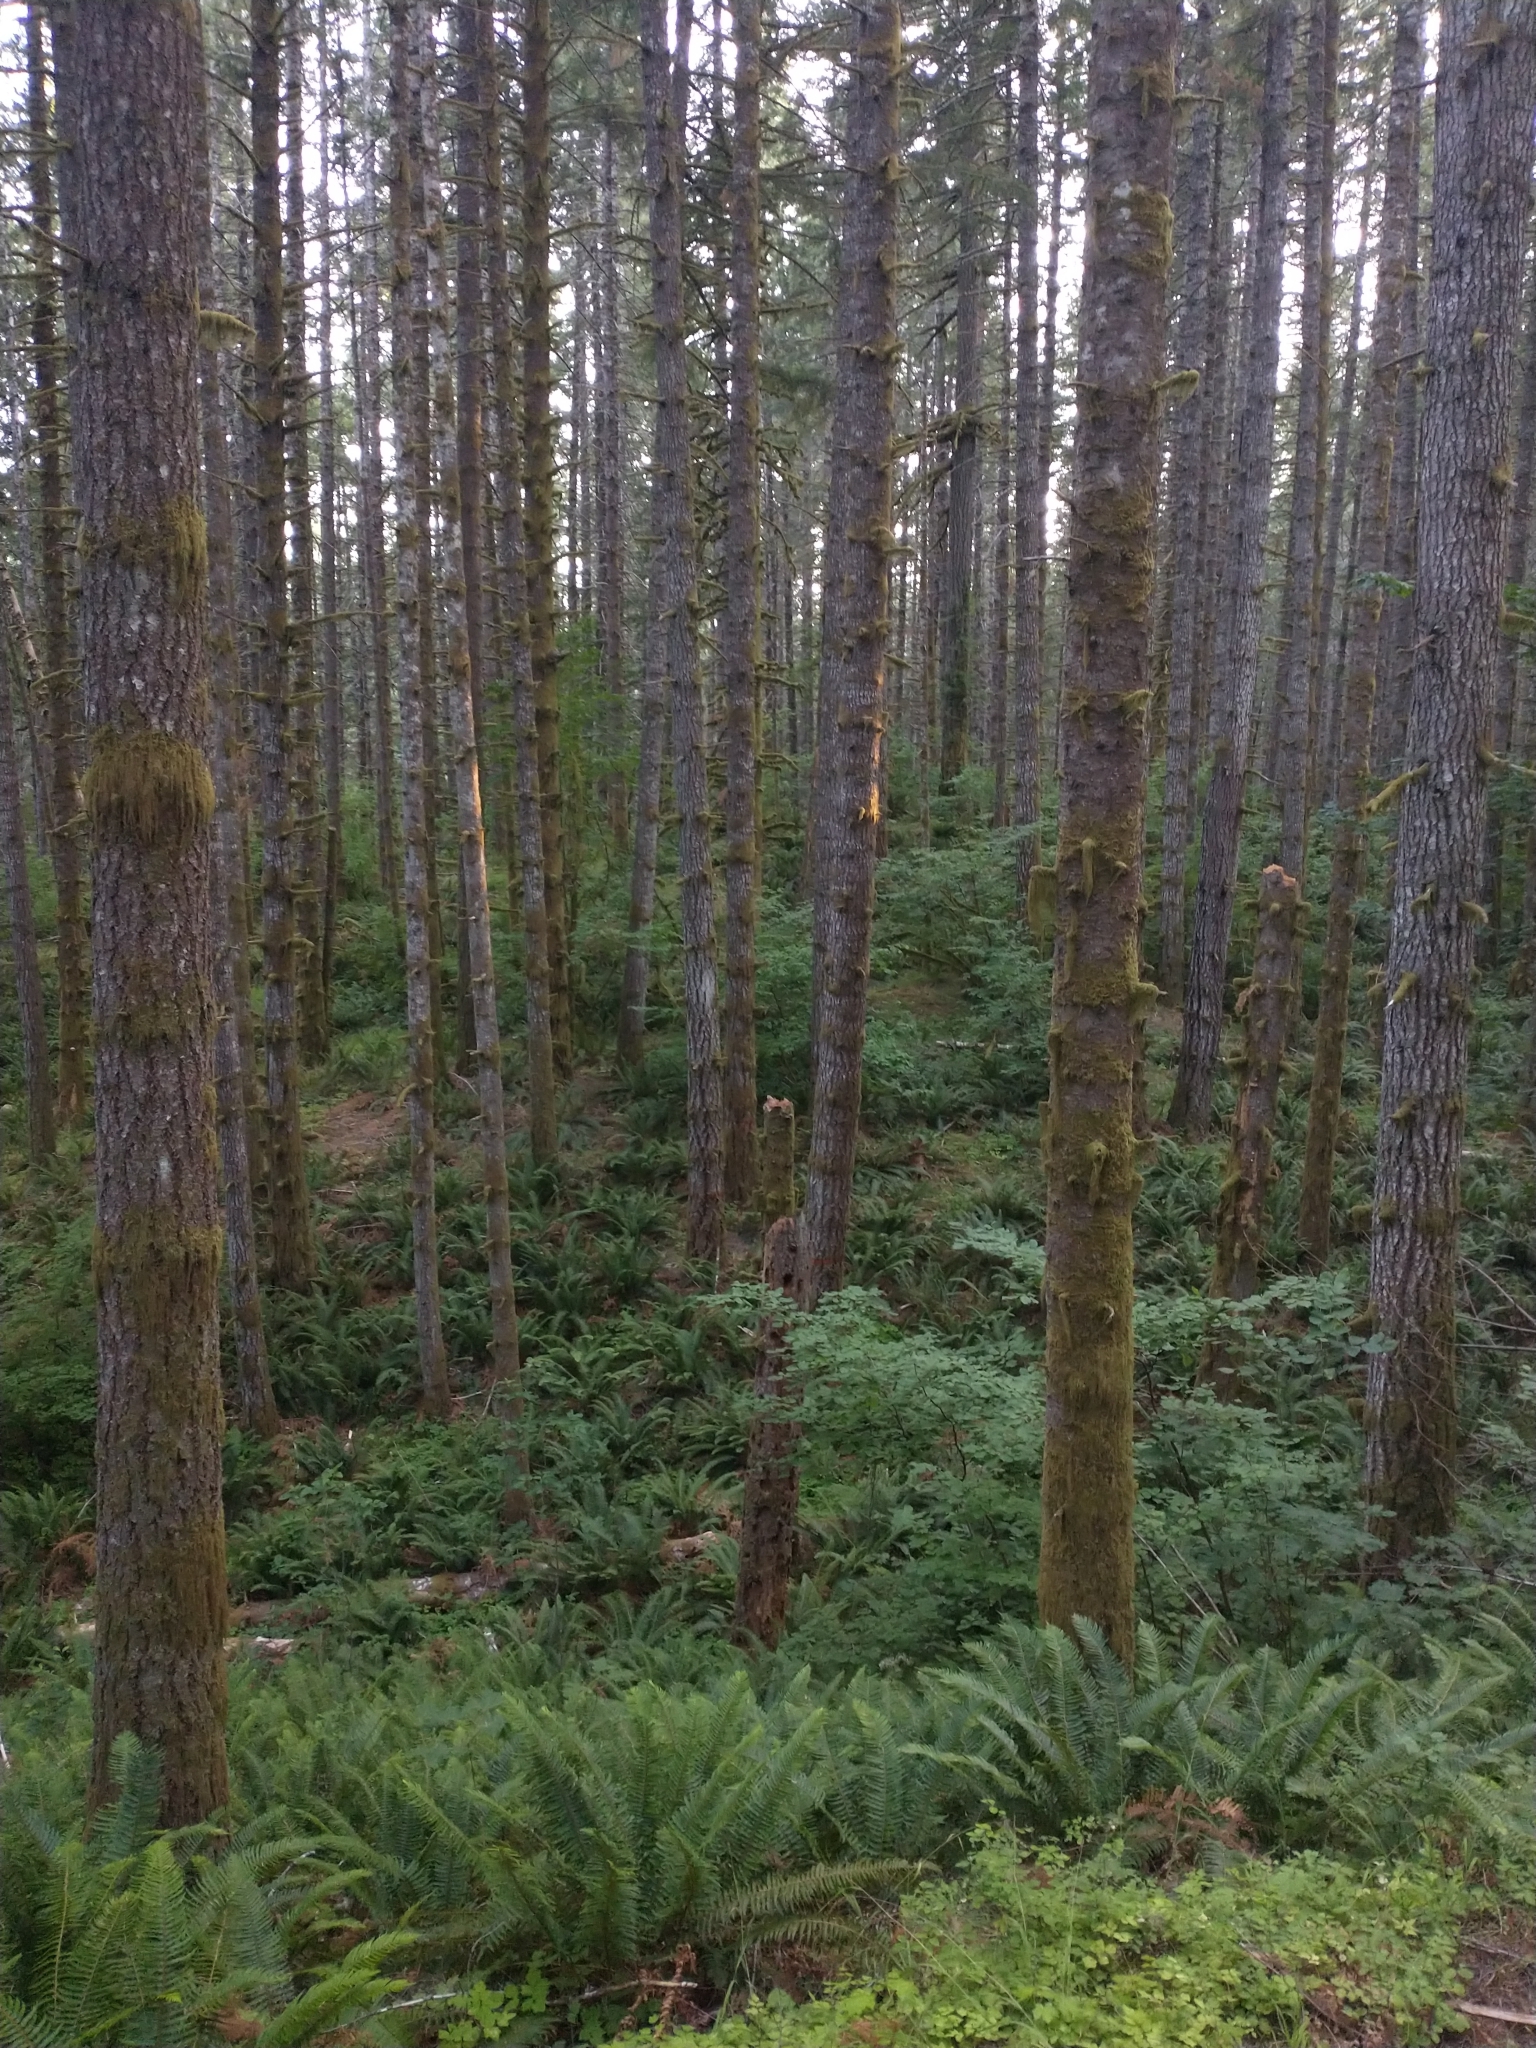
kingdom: Plantae
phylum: Tracheophyta
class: Pinopsida
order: Pinales
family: Pinaceae
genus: Pseudotsuga
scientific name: Pseudotsuga menziesii
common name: Douglas fir
